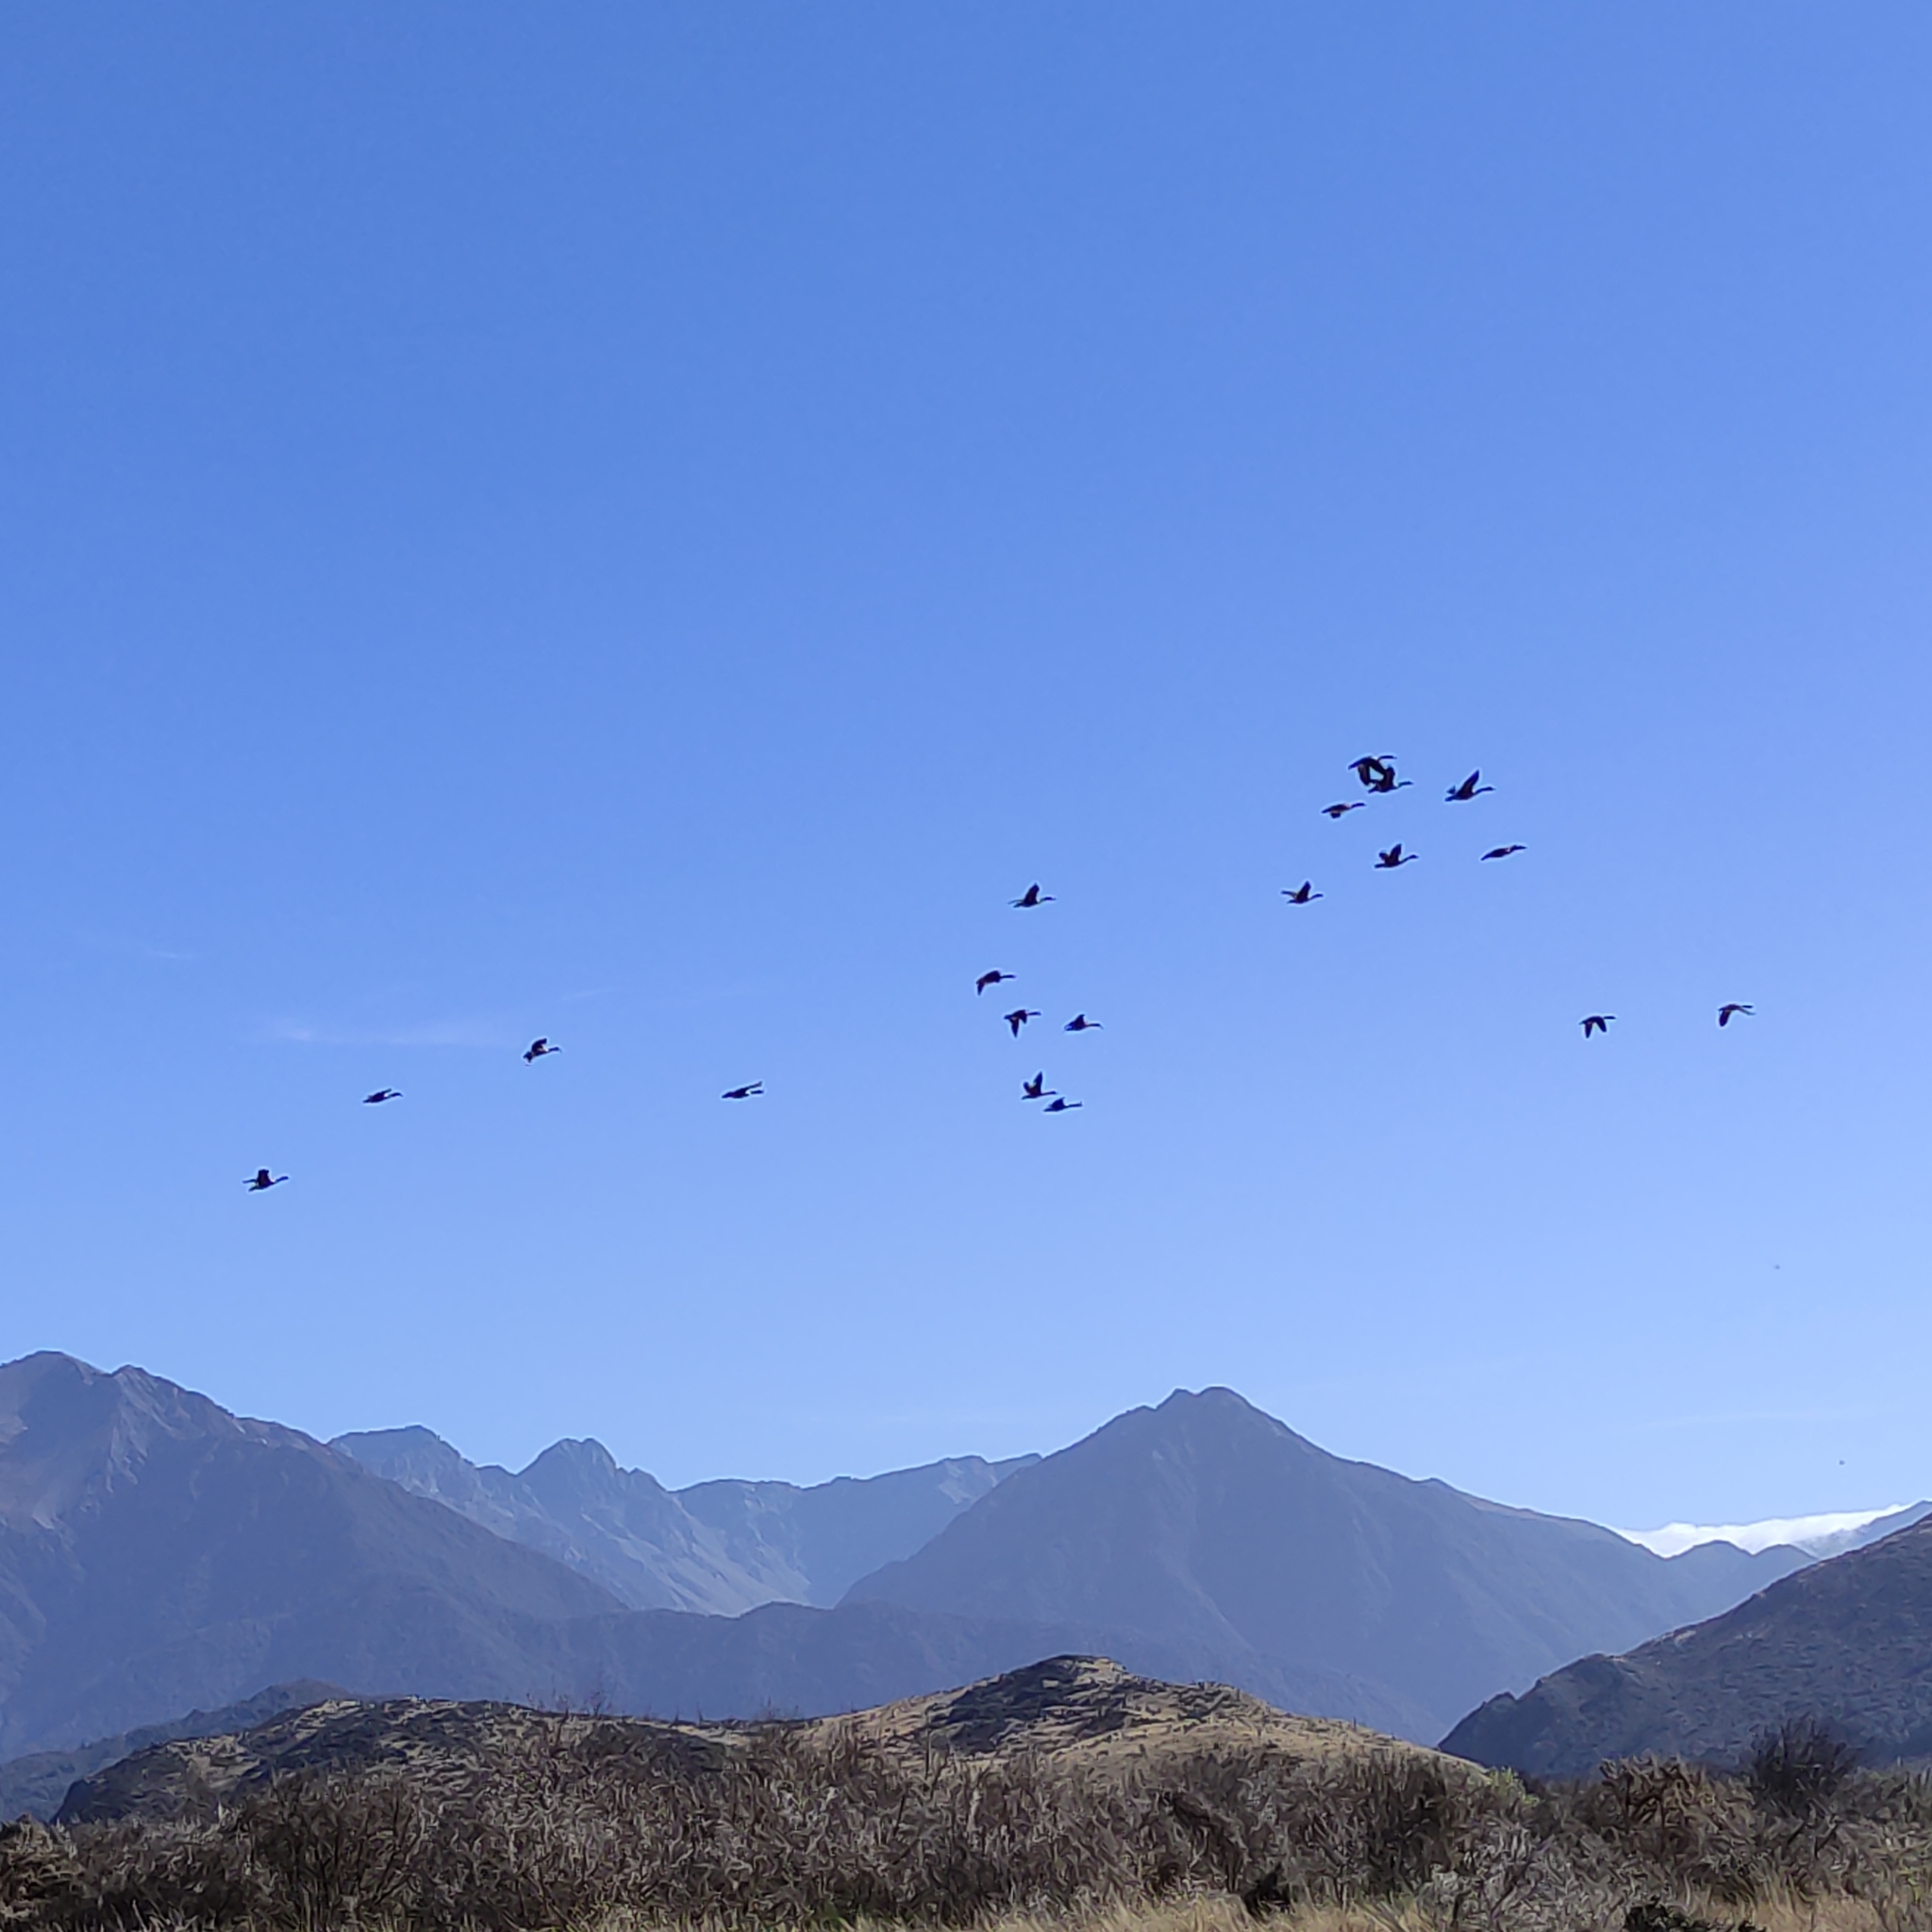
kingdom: Animalia
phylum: Chordata
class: Aves
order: Anseriformes
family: Anatidae
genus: Branta
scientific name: Branta canadensis
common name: Canada goose
